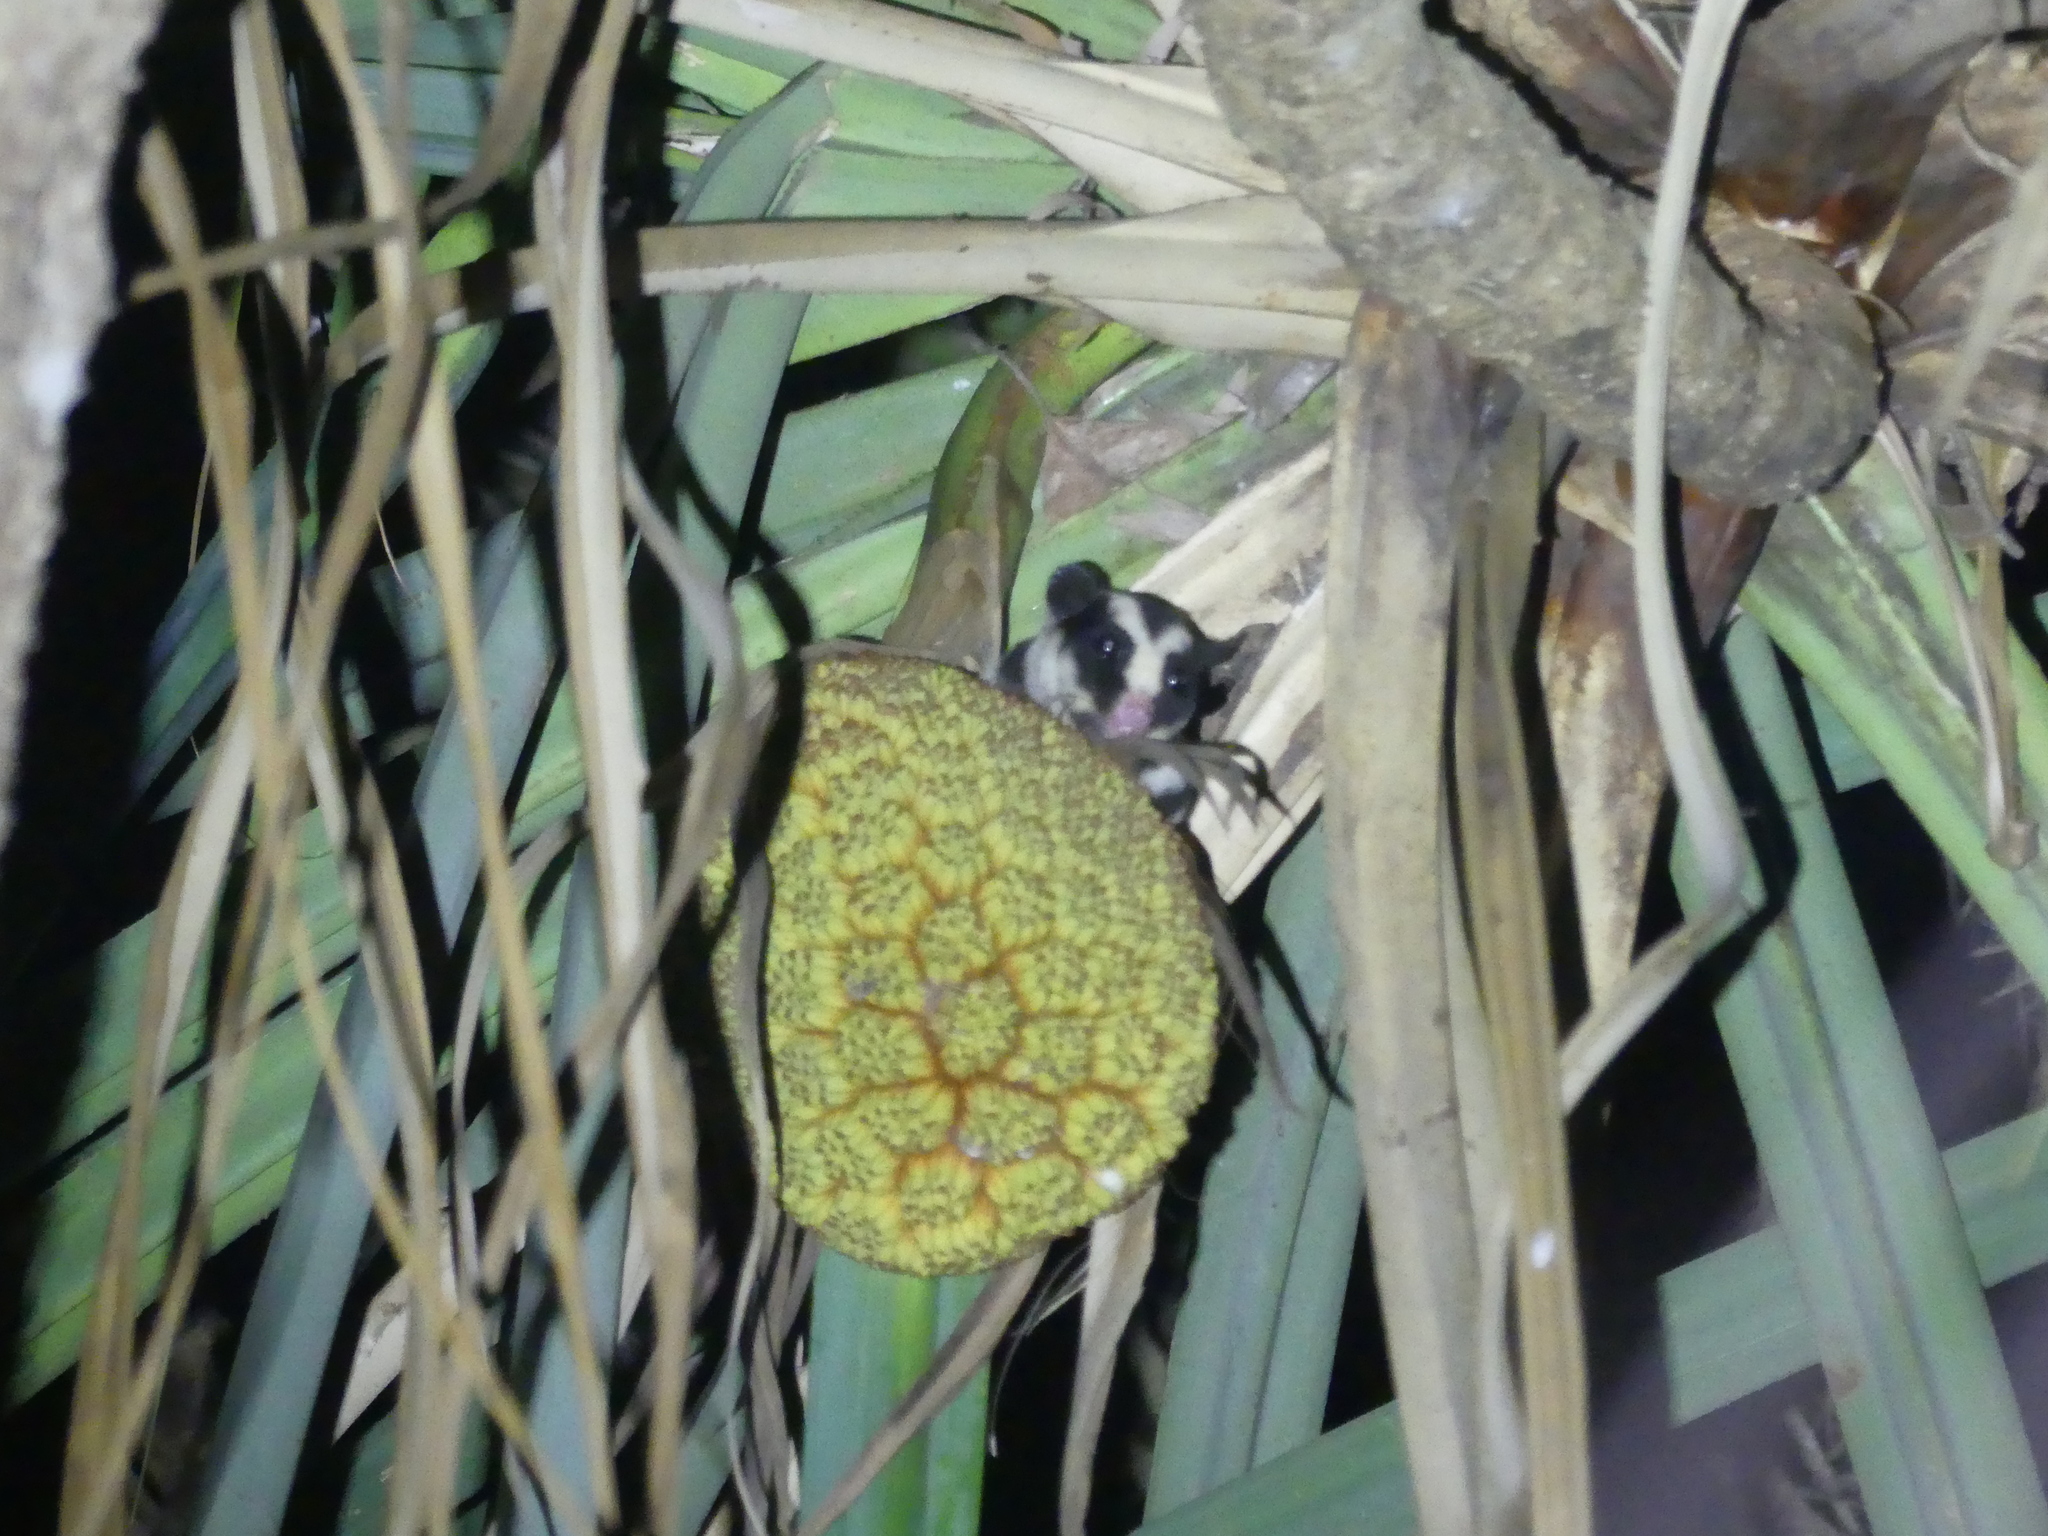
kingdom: Animalia
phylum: Chordata
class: Mammalia
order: Diprotodontia
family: Petauridae
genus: Dactylopsila
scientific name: Dactylopsila trivirgata
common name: Striped possum
